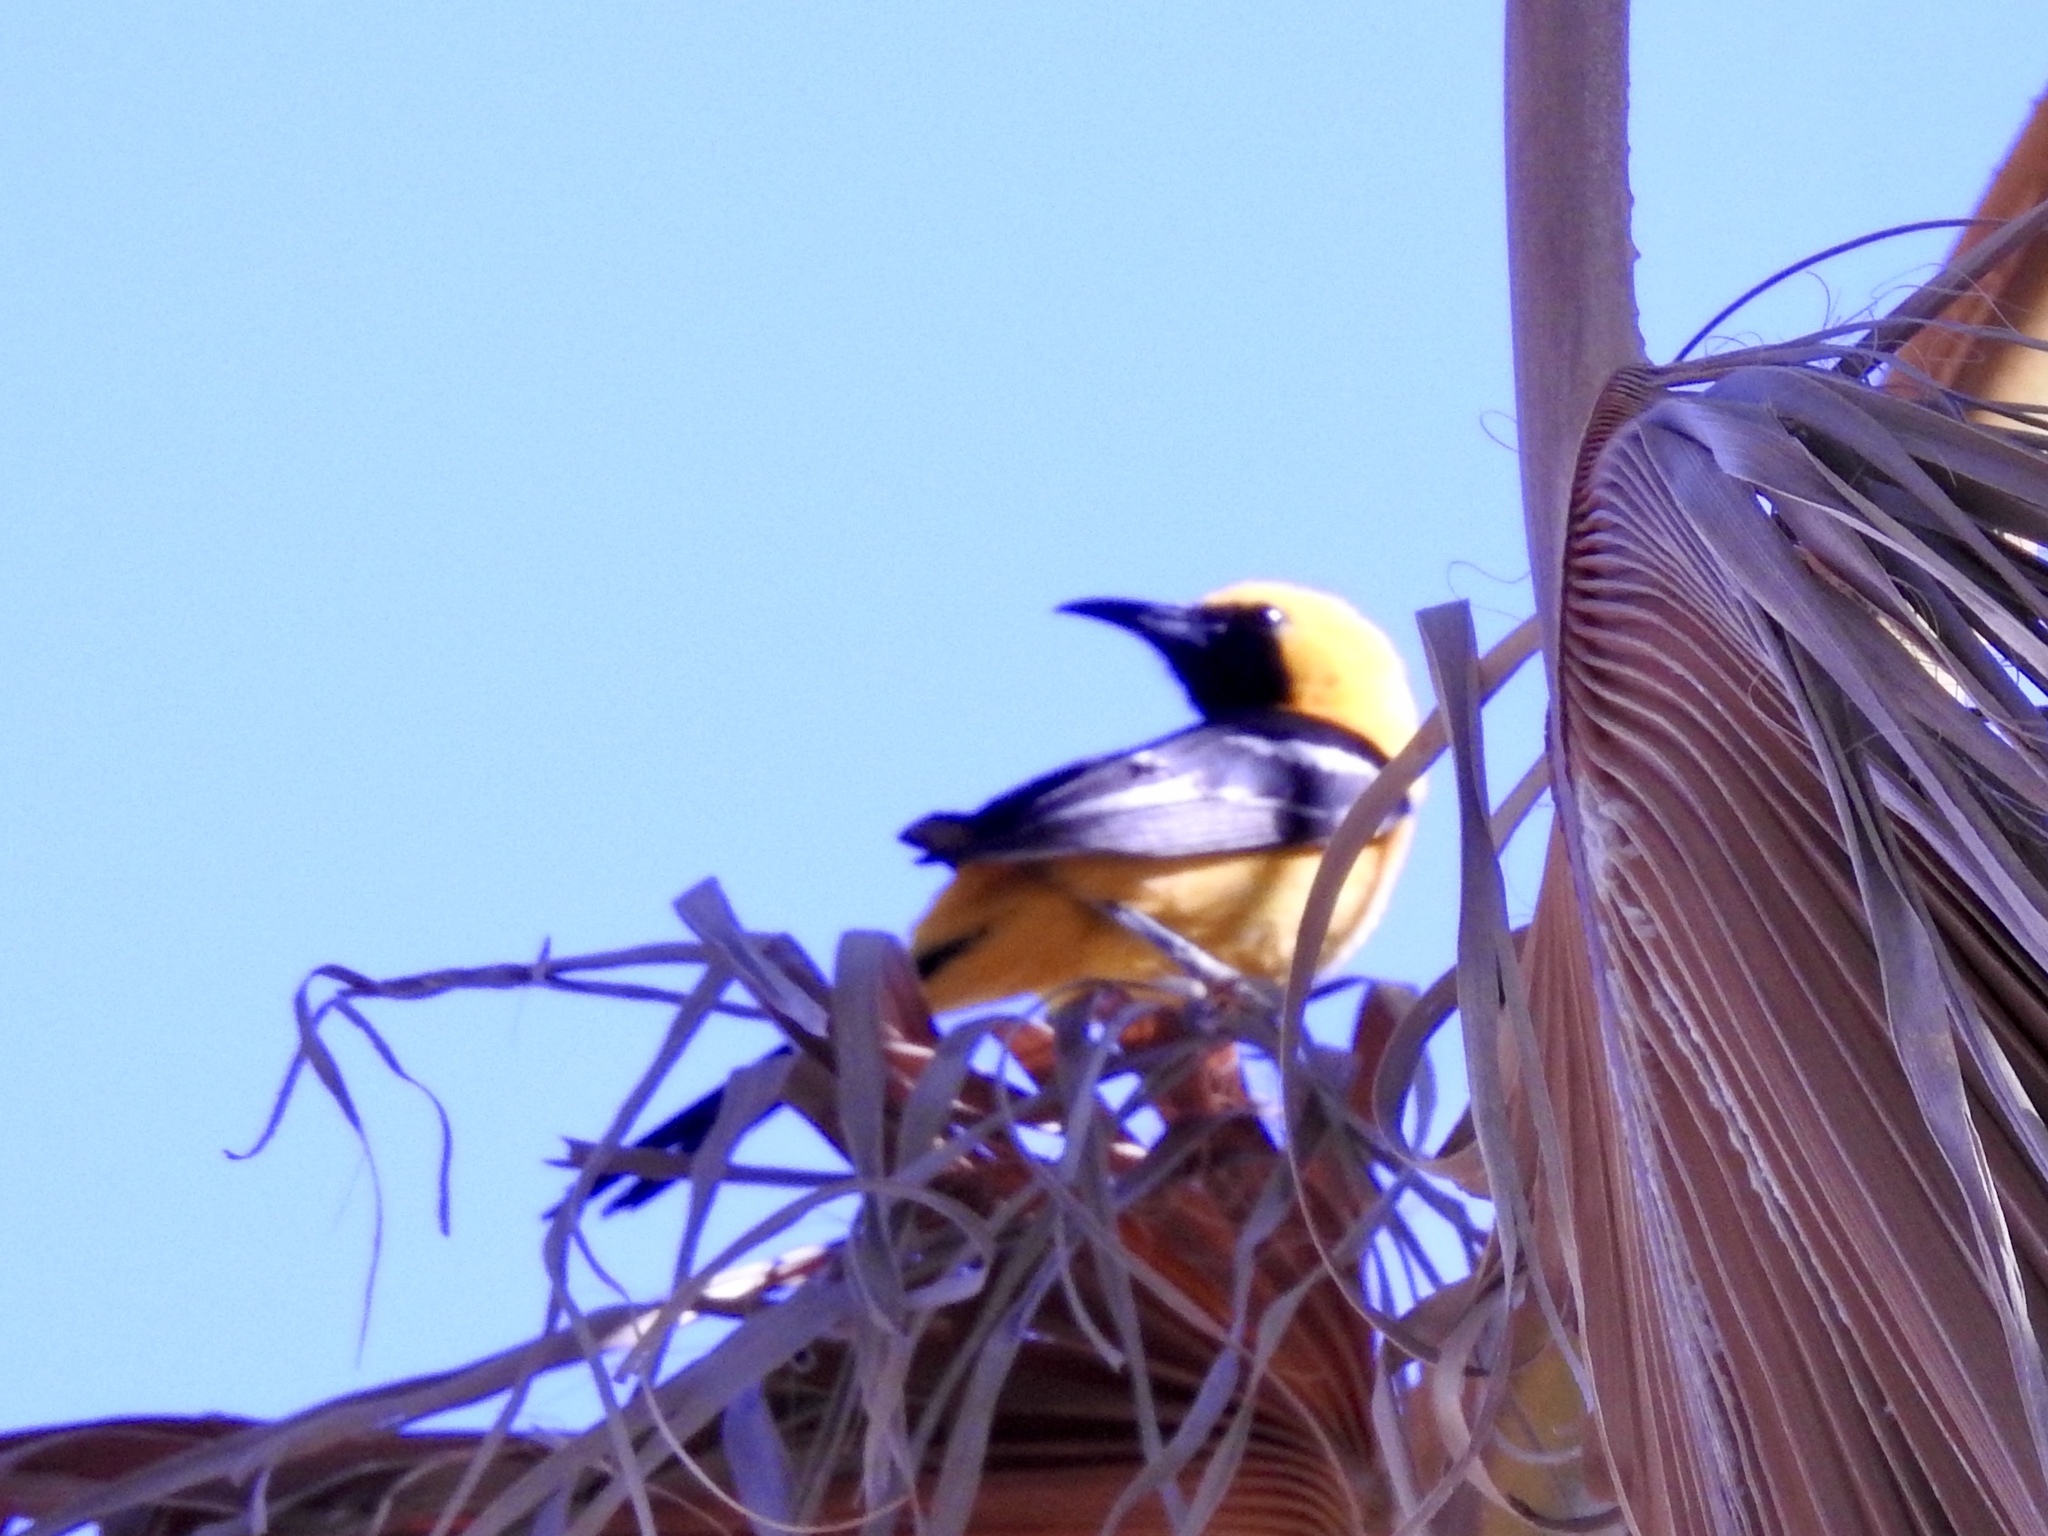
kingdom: Animalia
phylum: Chordata
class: Aves
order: Passeriformes
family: Icteridae
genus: Icterus
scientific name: Icterus cucullatus
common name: Hooded oriole
